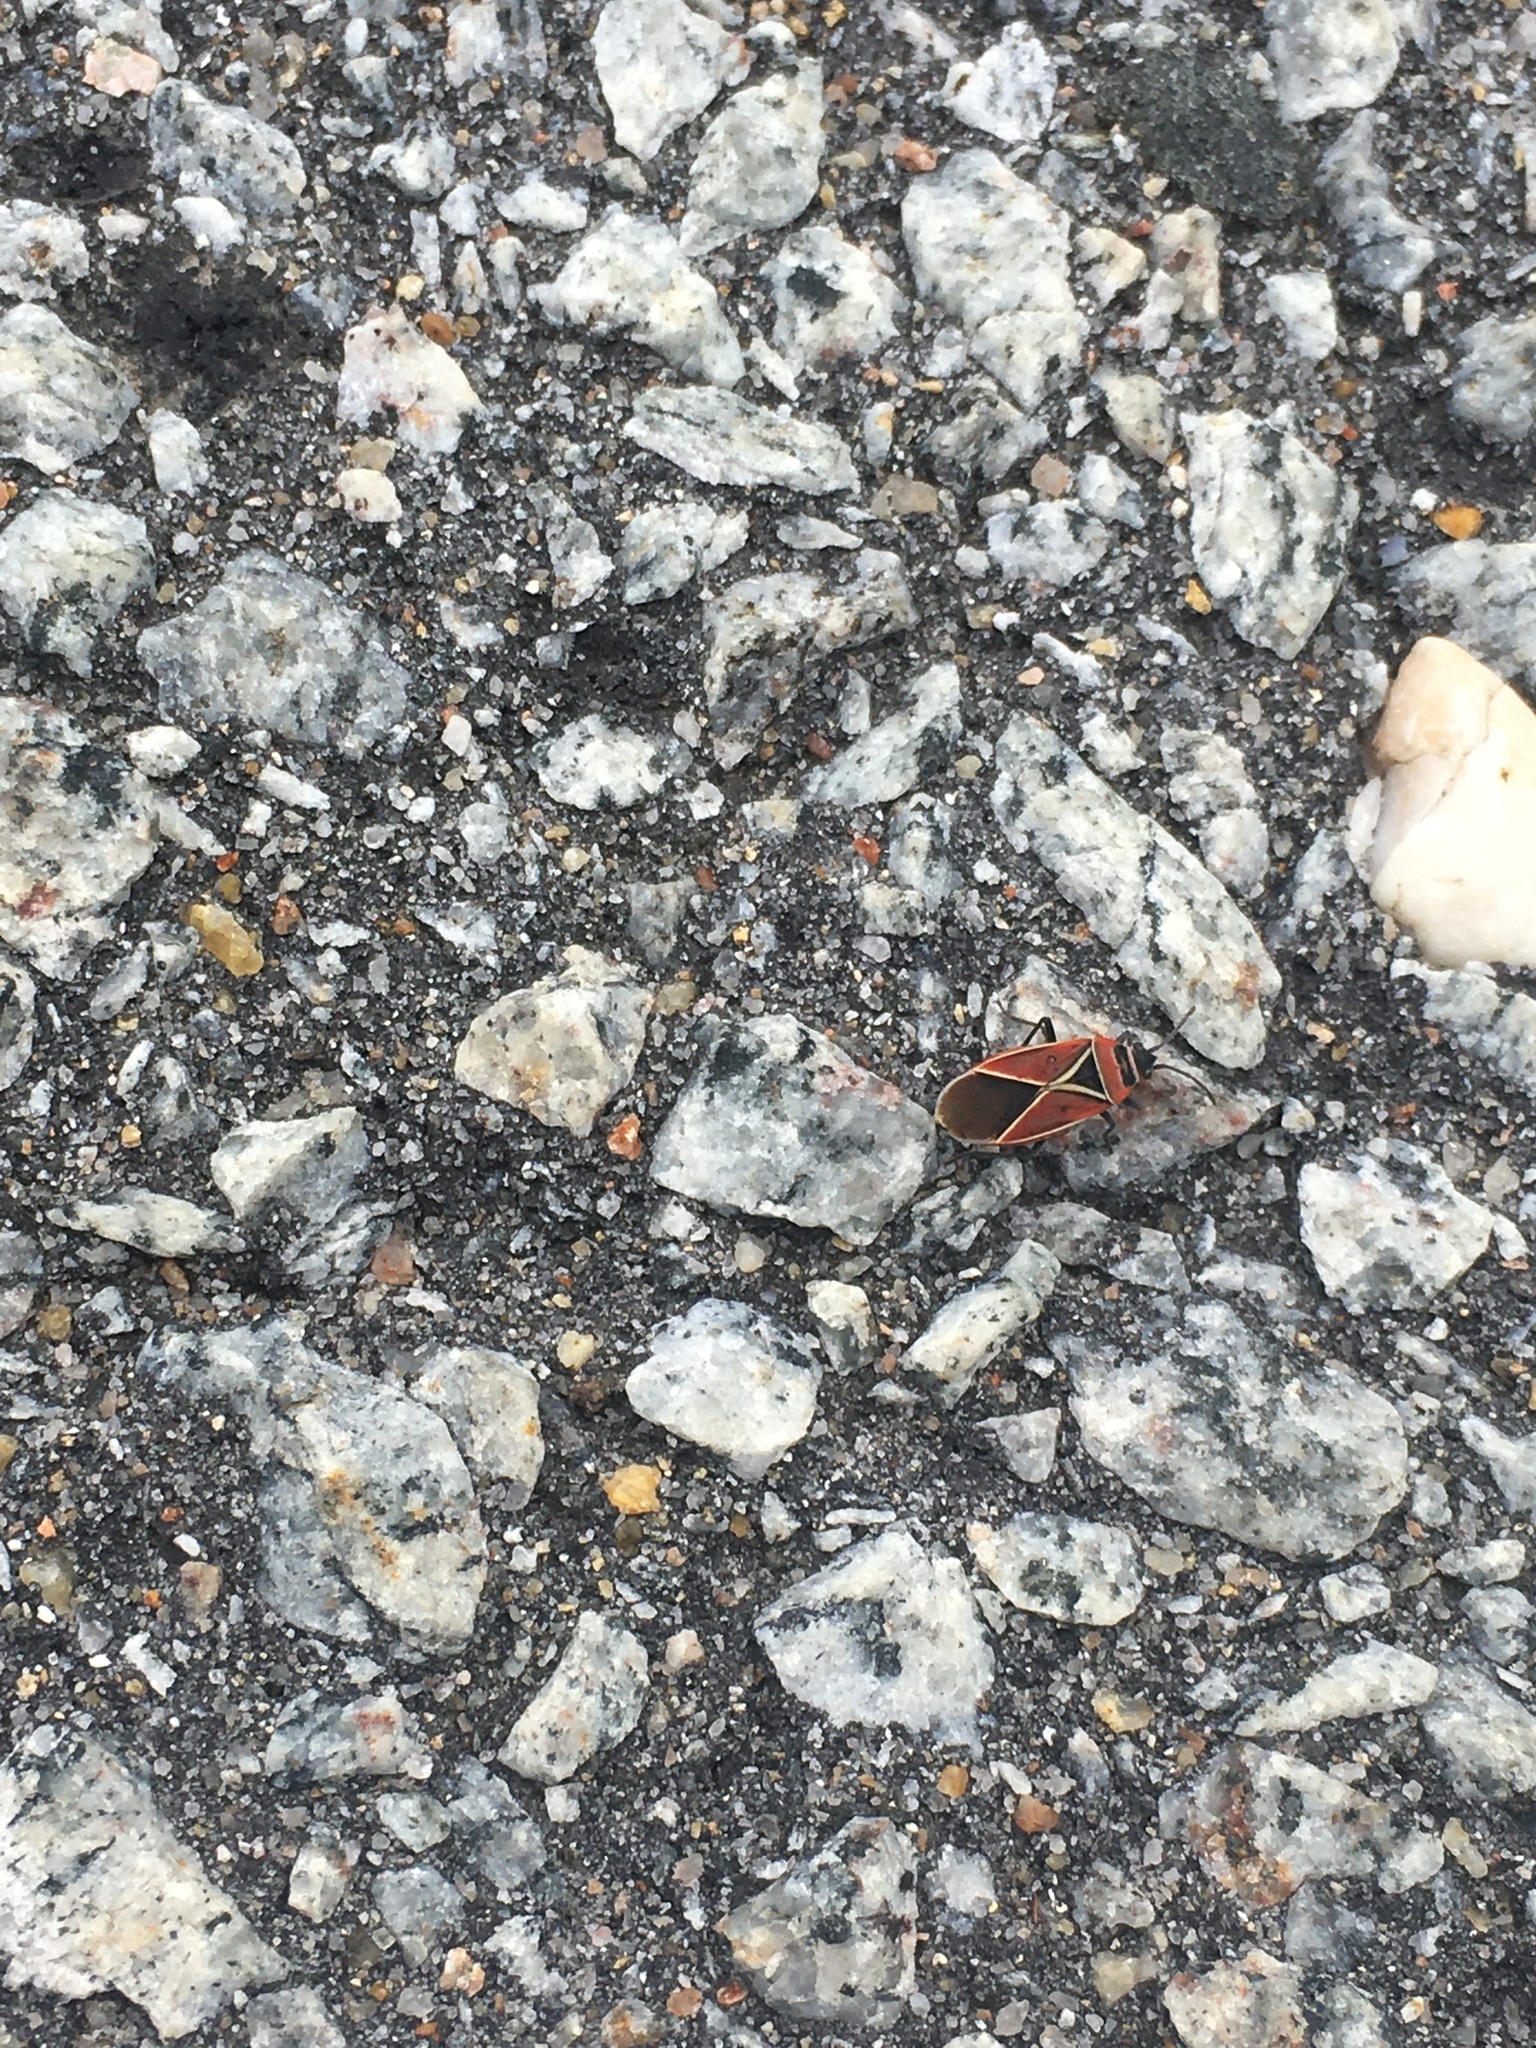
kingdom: Animalia
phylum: Arthropoda
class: Insecta
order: Hemiptera
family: Lygaeidae
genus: Neacoryphus
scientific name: Neacoryphus bicrucis
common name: Lygaeid bug
